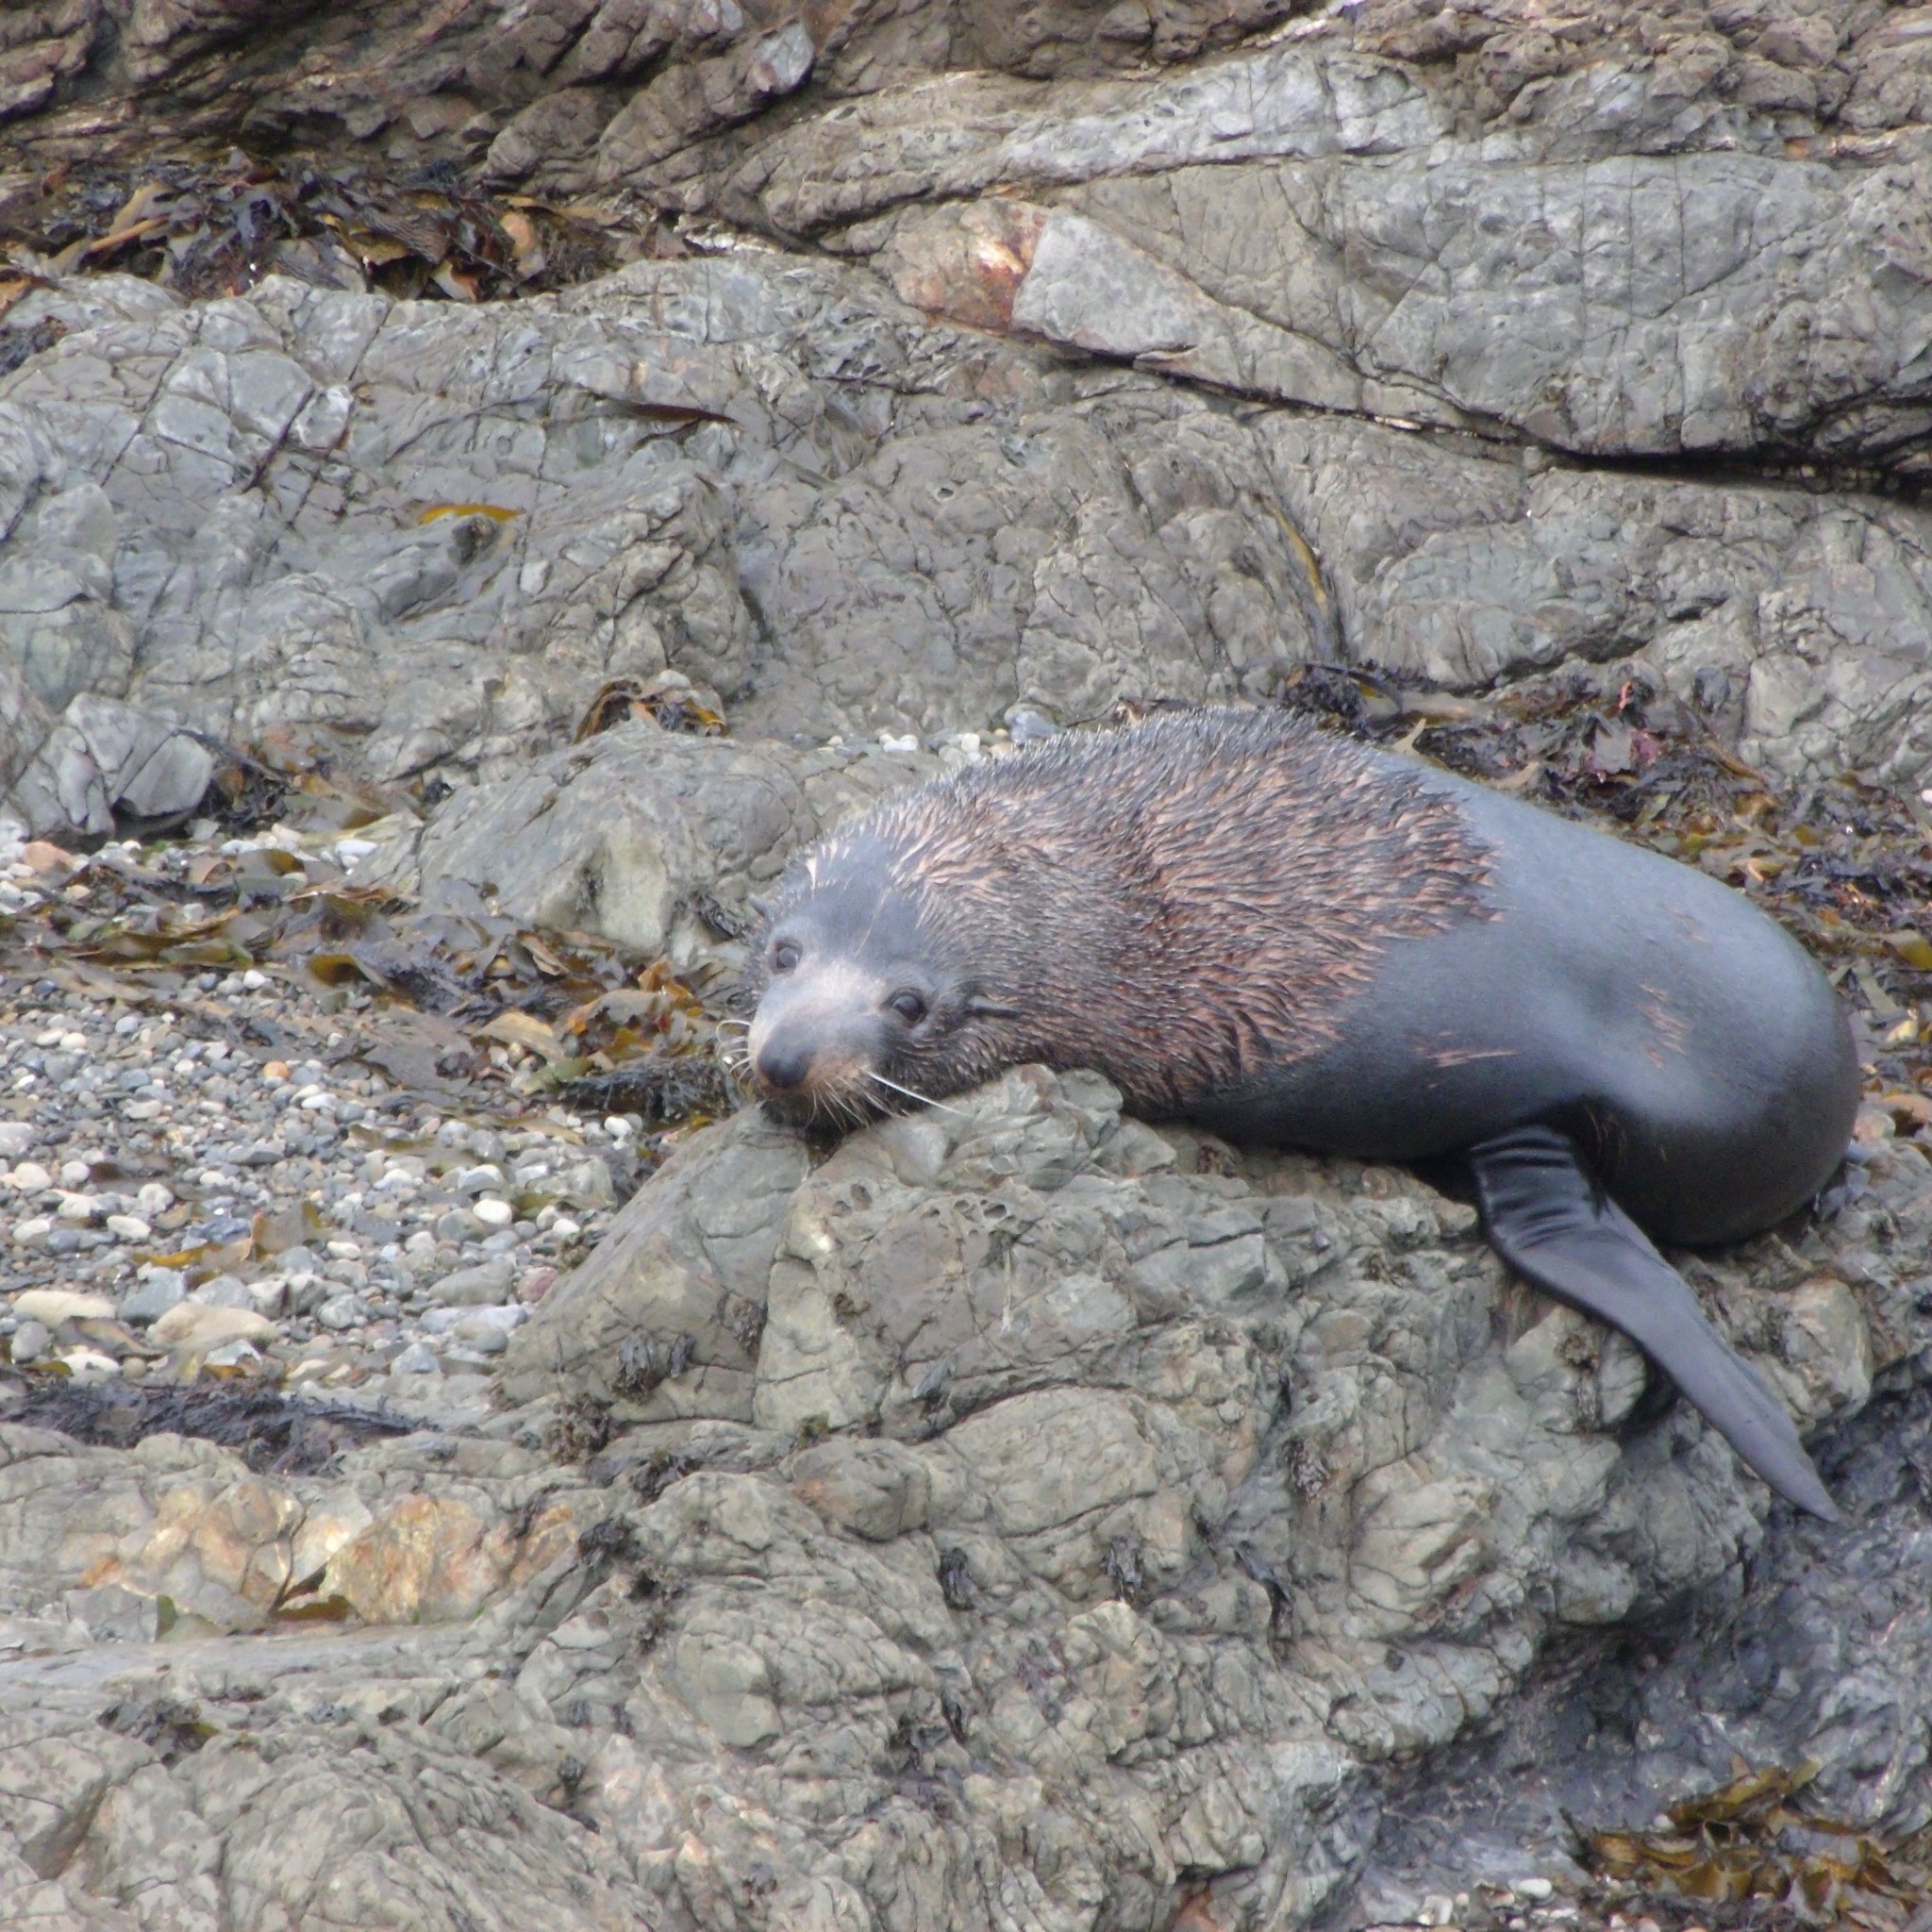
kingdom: Animalia
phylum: Chordata
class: Mammalia
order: Carnivora
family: Otariidae
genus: Arctocephalus
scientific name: Arctocephalus forsteri
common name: New zealand fur seal
